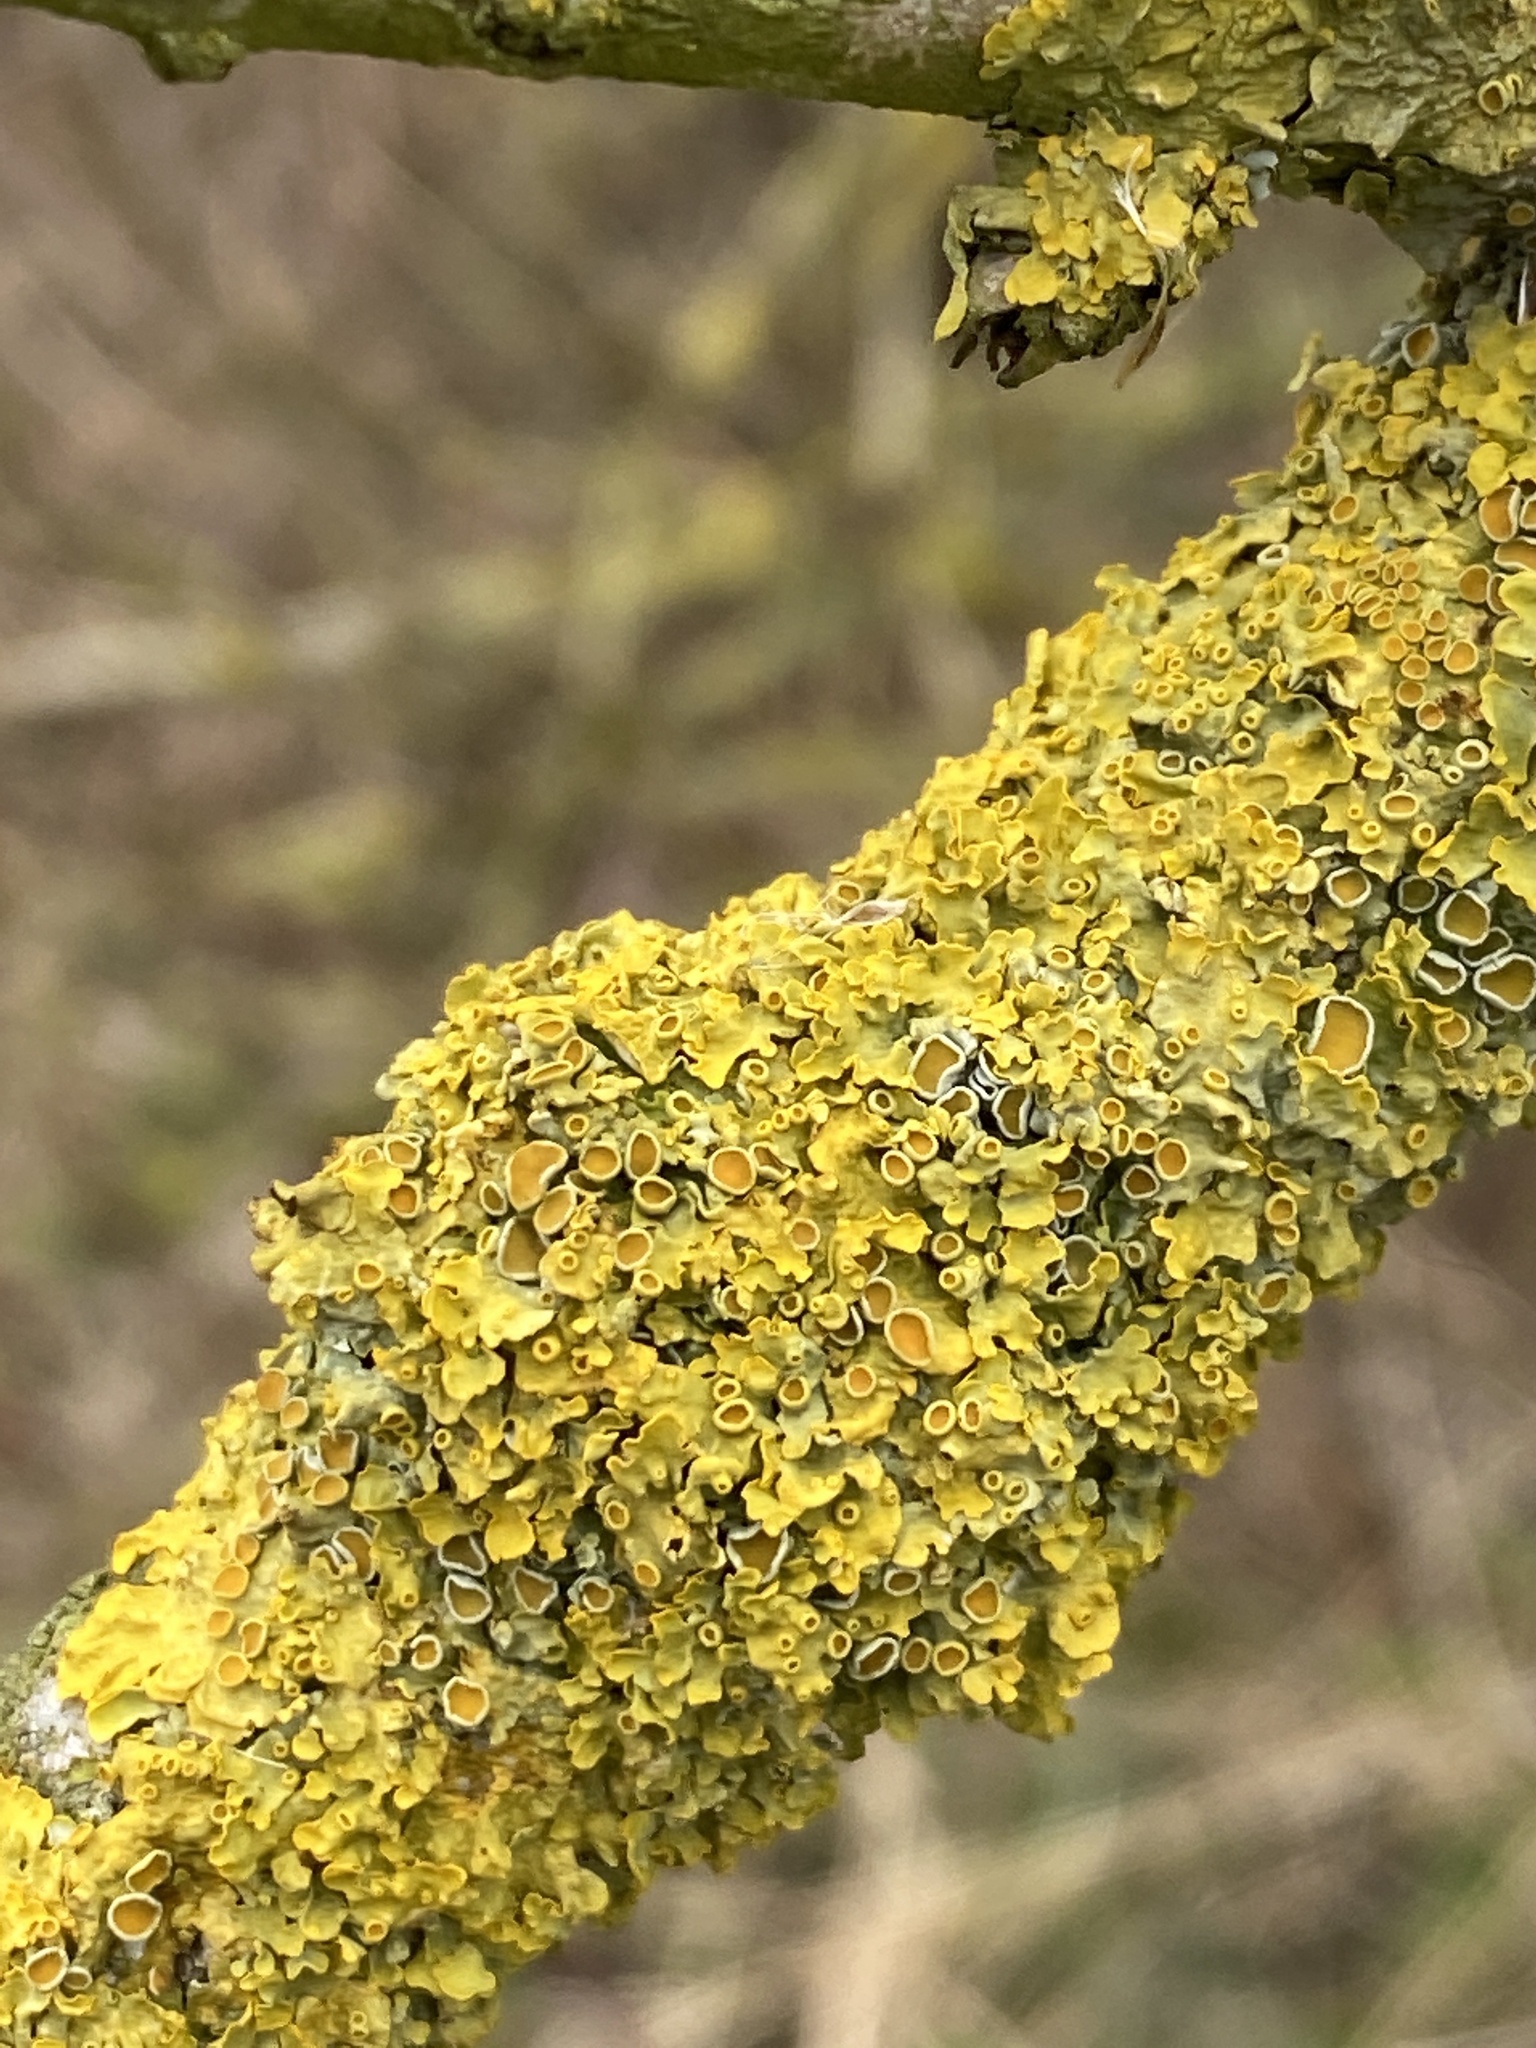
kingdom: Fungi
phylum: Ascomycota
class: Lecanoromycetes
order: Teloschistales
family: Teloschistaceae
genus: Xanthoria
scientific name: Xanthoria parietina
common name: Common orange lichen
